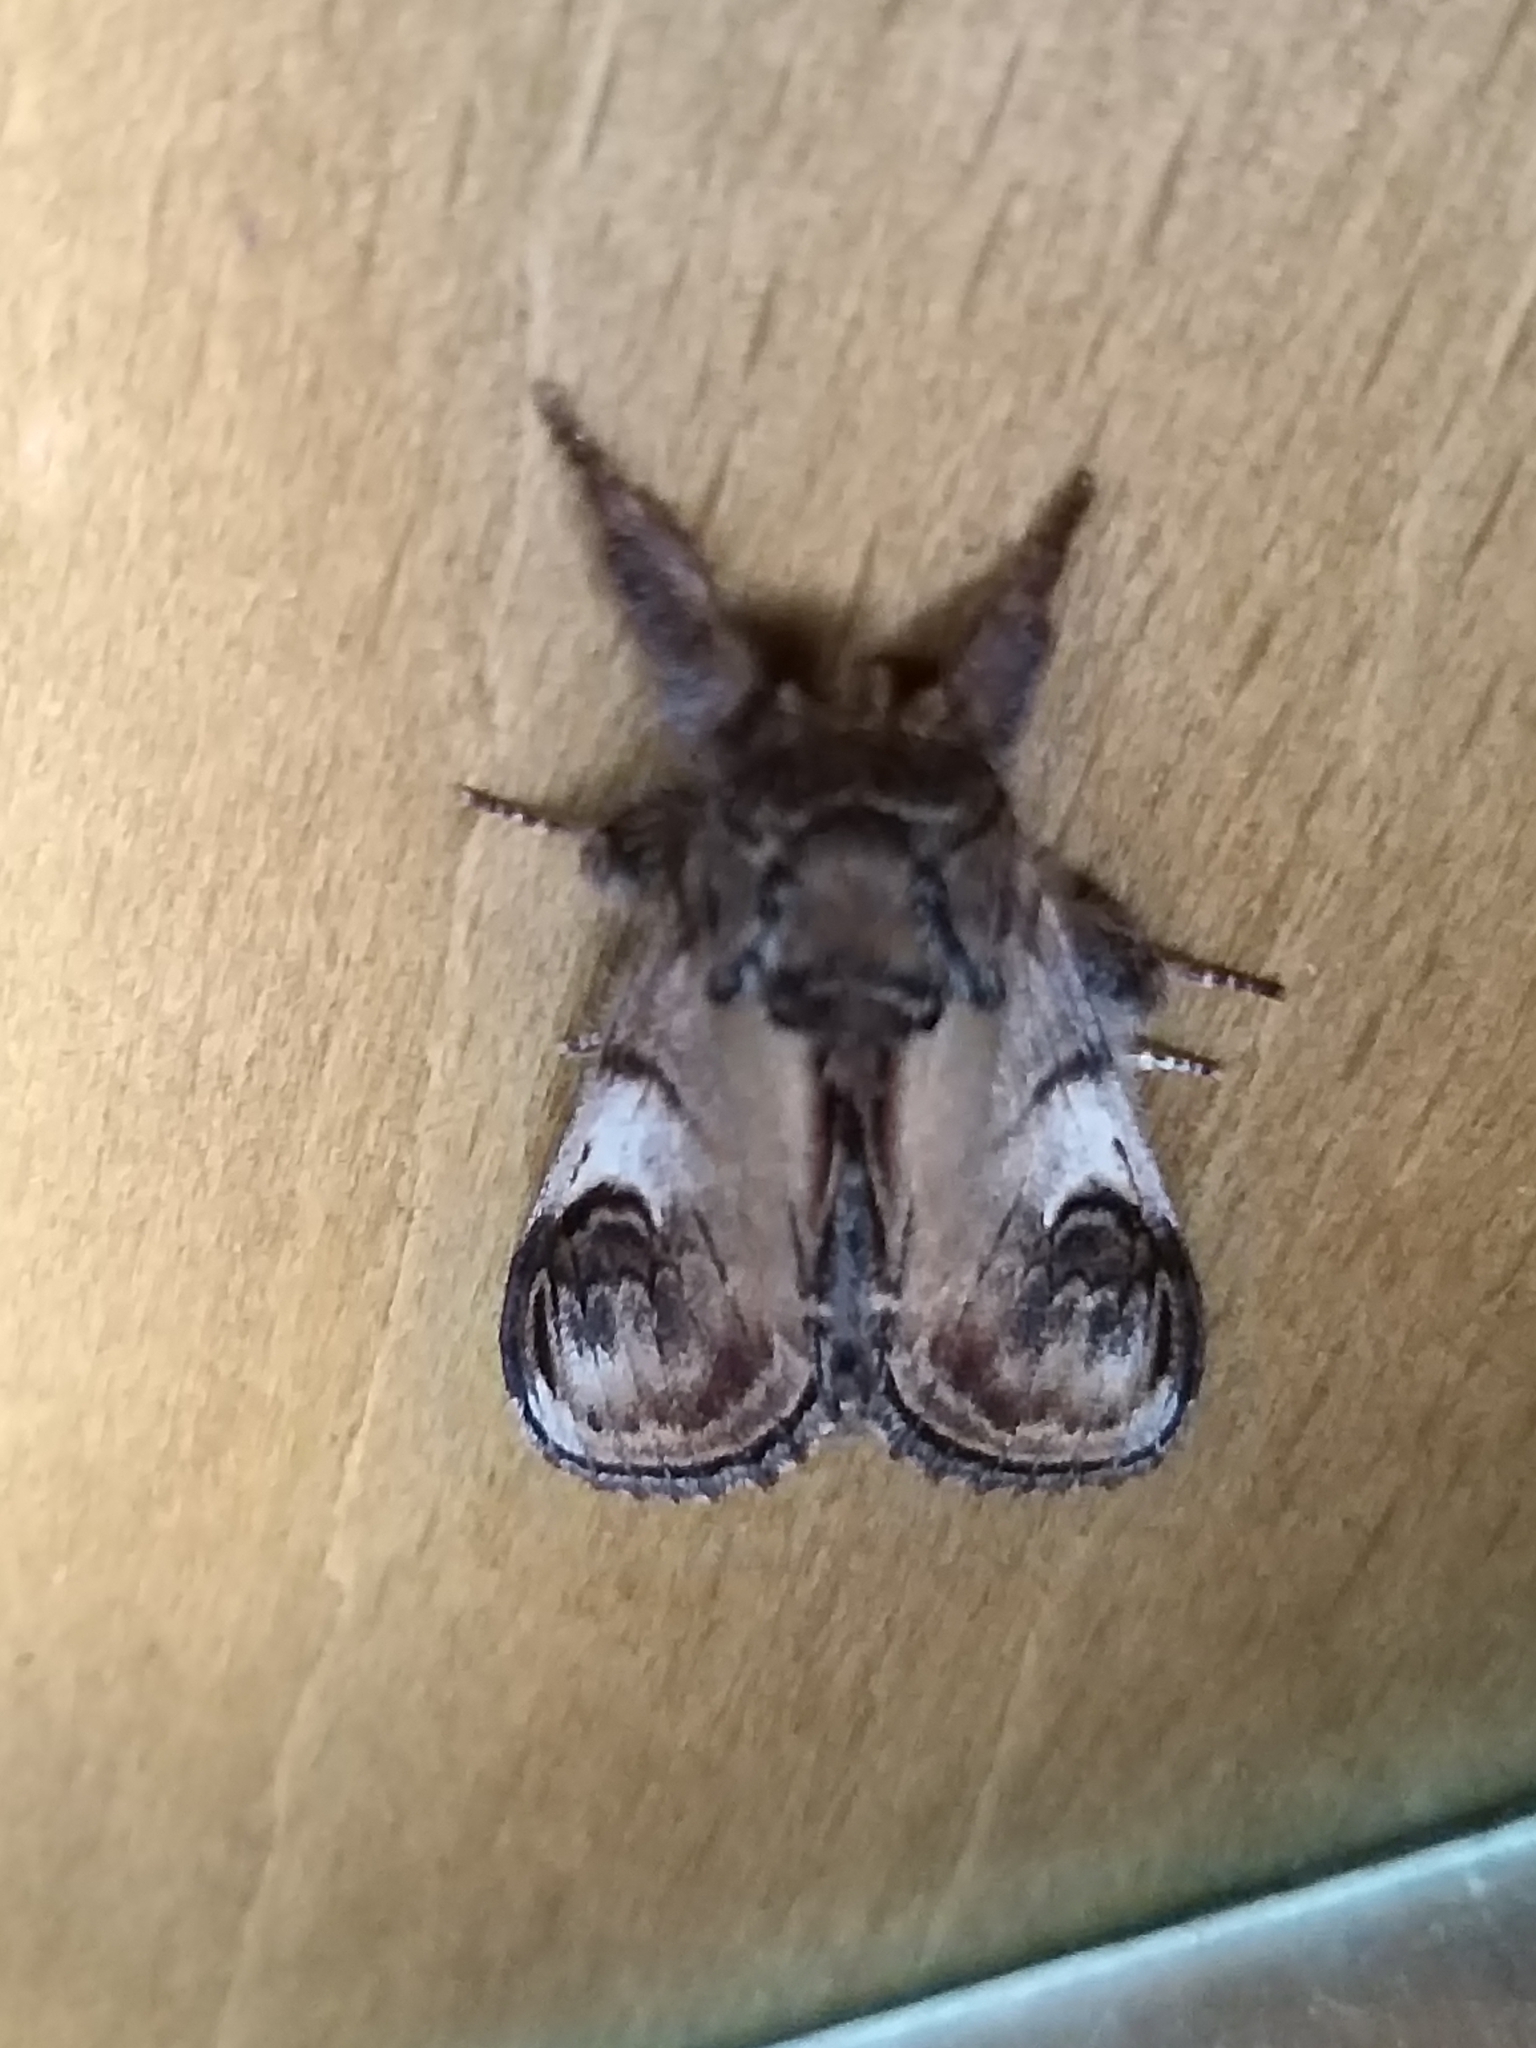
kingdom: Animalia
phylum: Arthropoda
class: Insecta
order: Lepidoptera
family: Notodontidae
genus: Notodonta
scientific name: Notodonta ziczac
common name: Pebble prominent
